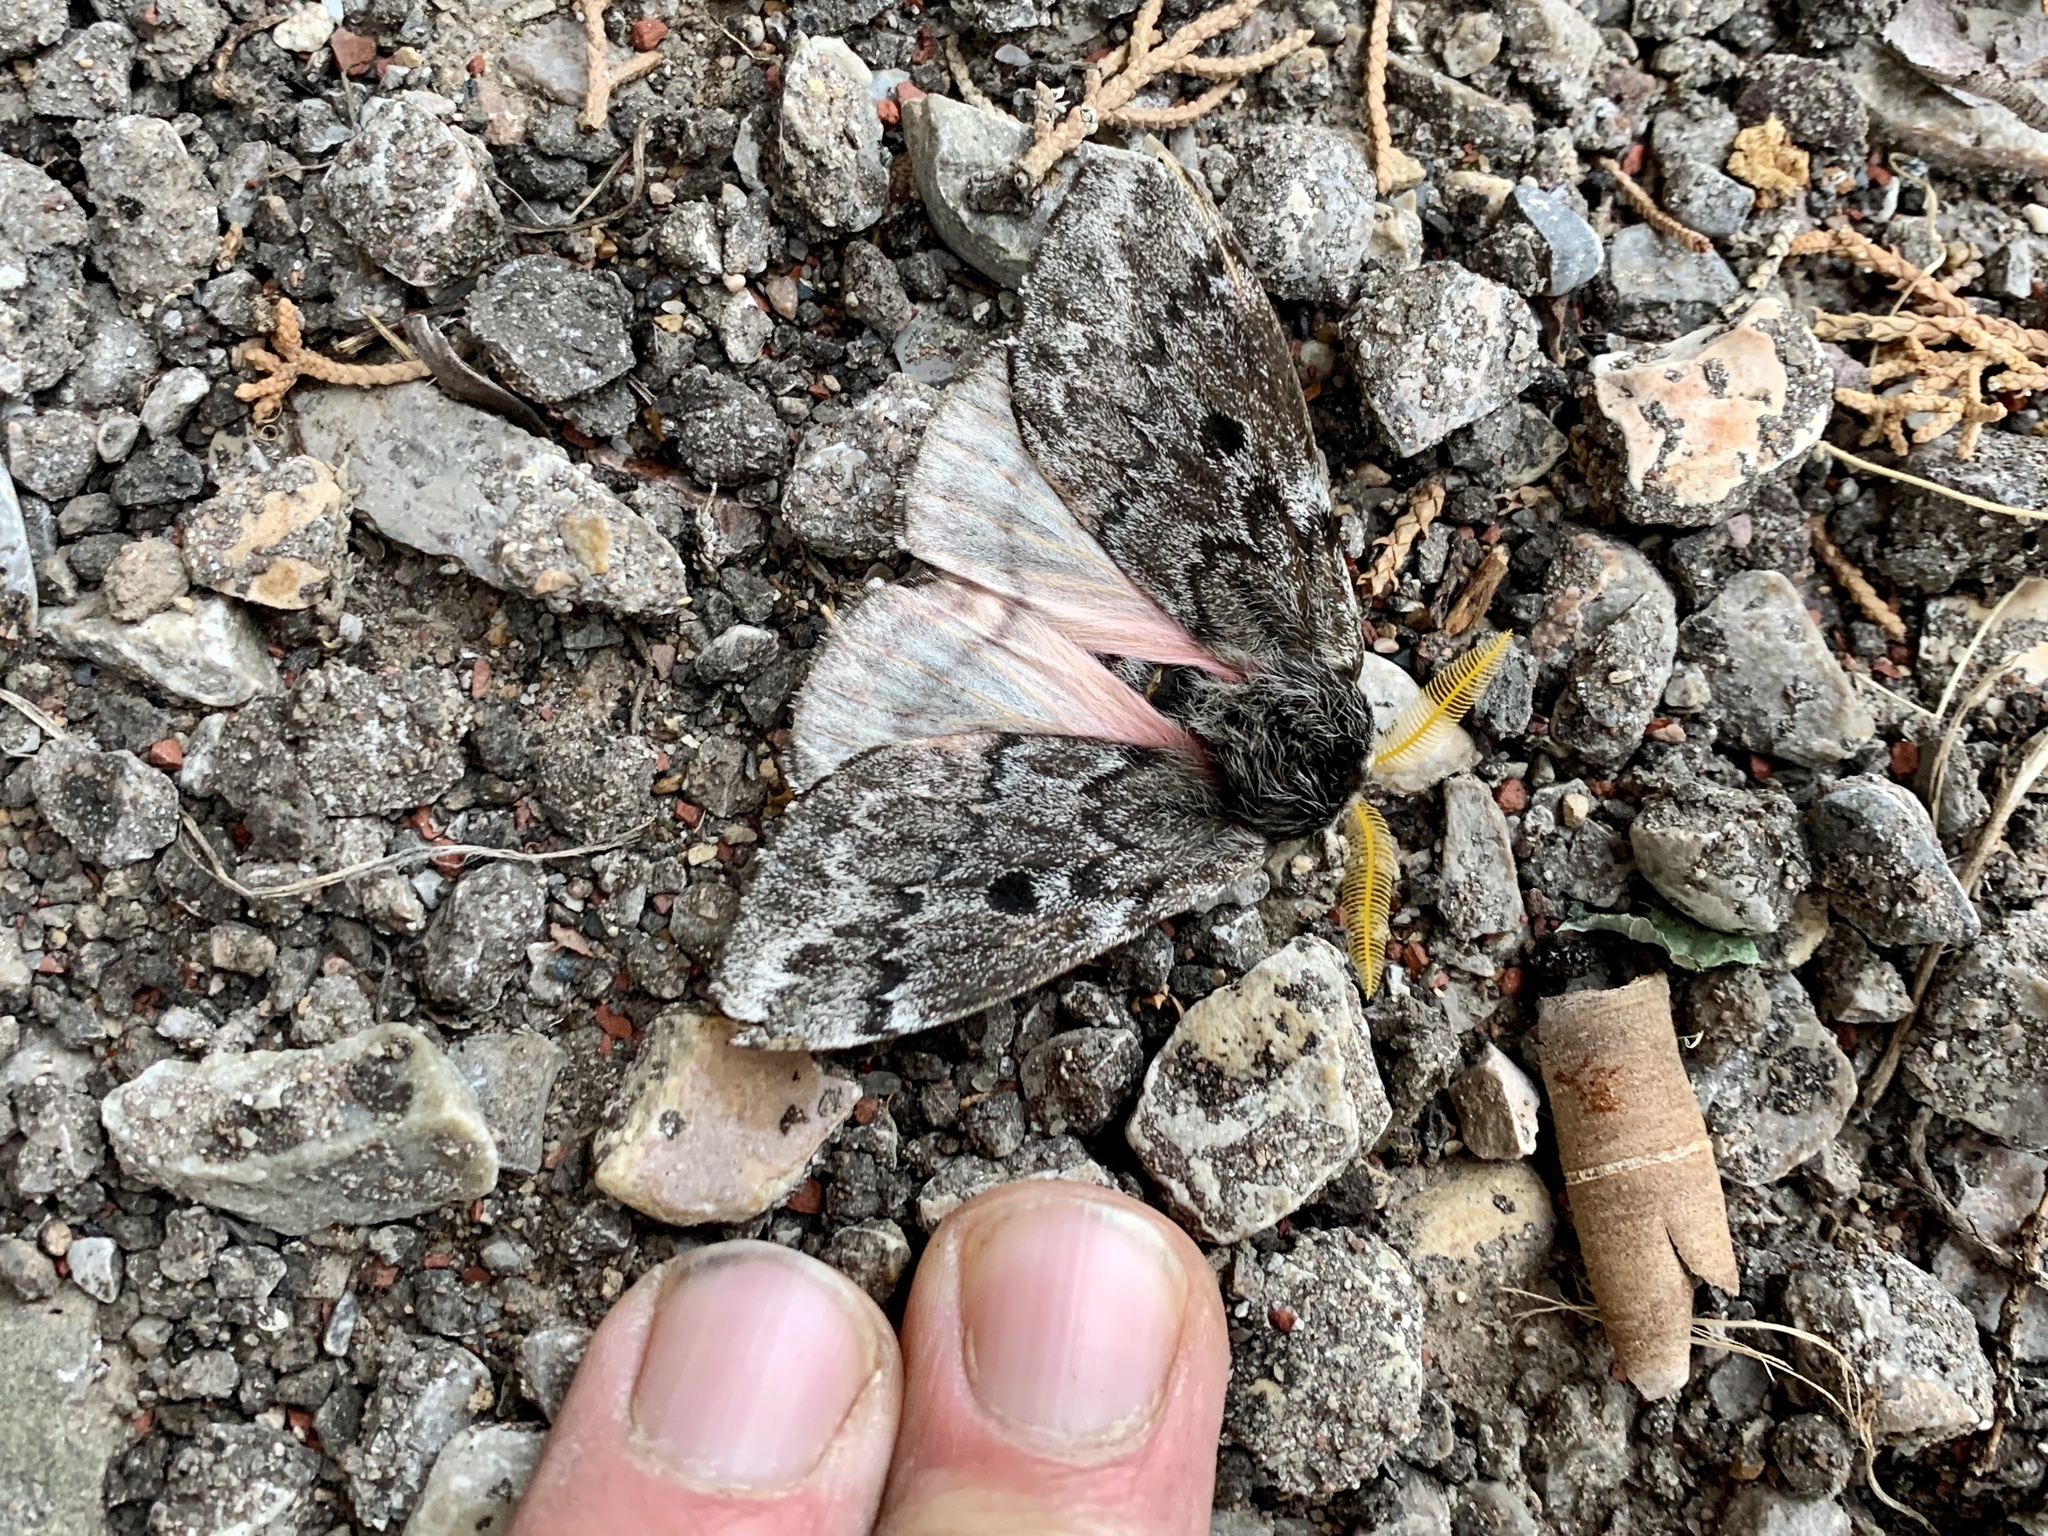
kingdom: Animalia
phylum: Arthropoda
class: Insecta
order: Lepidoptera
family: Saturniidae
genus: Coloradia
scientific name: Coloradia pandora
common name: Pandora pinemoth
